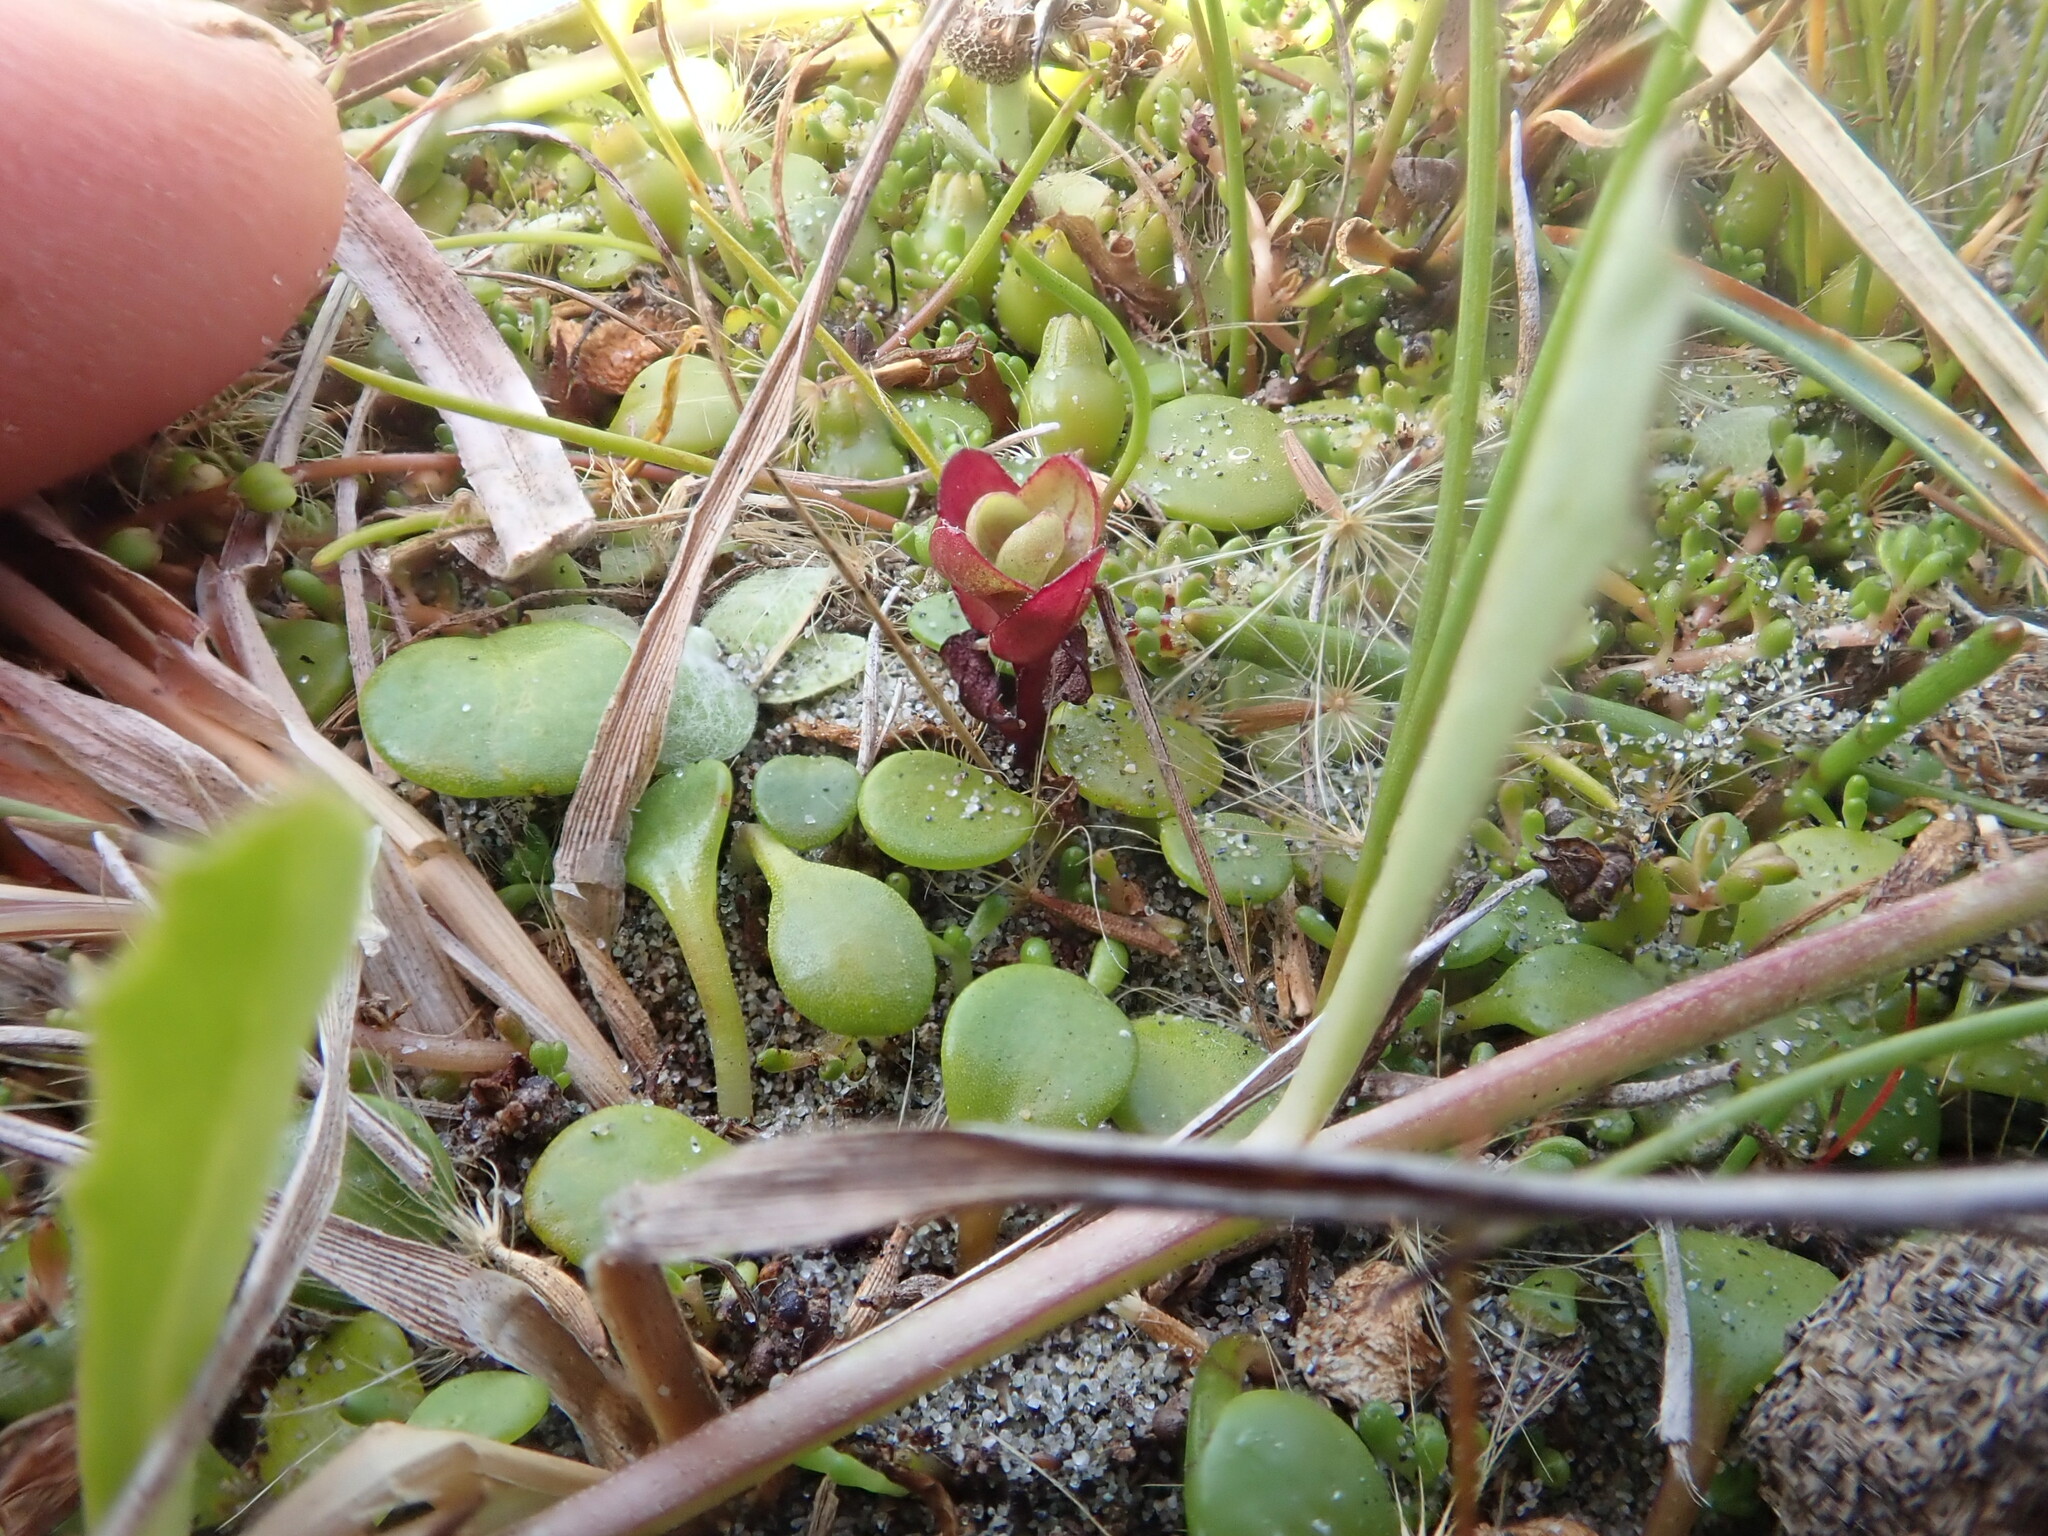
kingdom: Plantae
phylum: Tracheophyta
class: Magnoliopsida
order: Myrtales
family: Onagraceae
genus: Epilobium
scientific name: Epilobium billardiereanum
